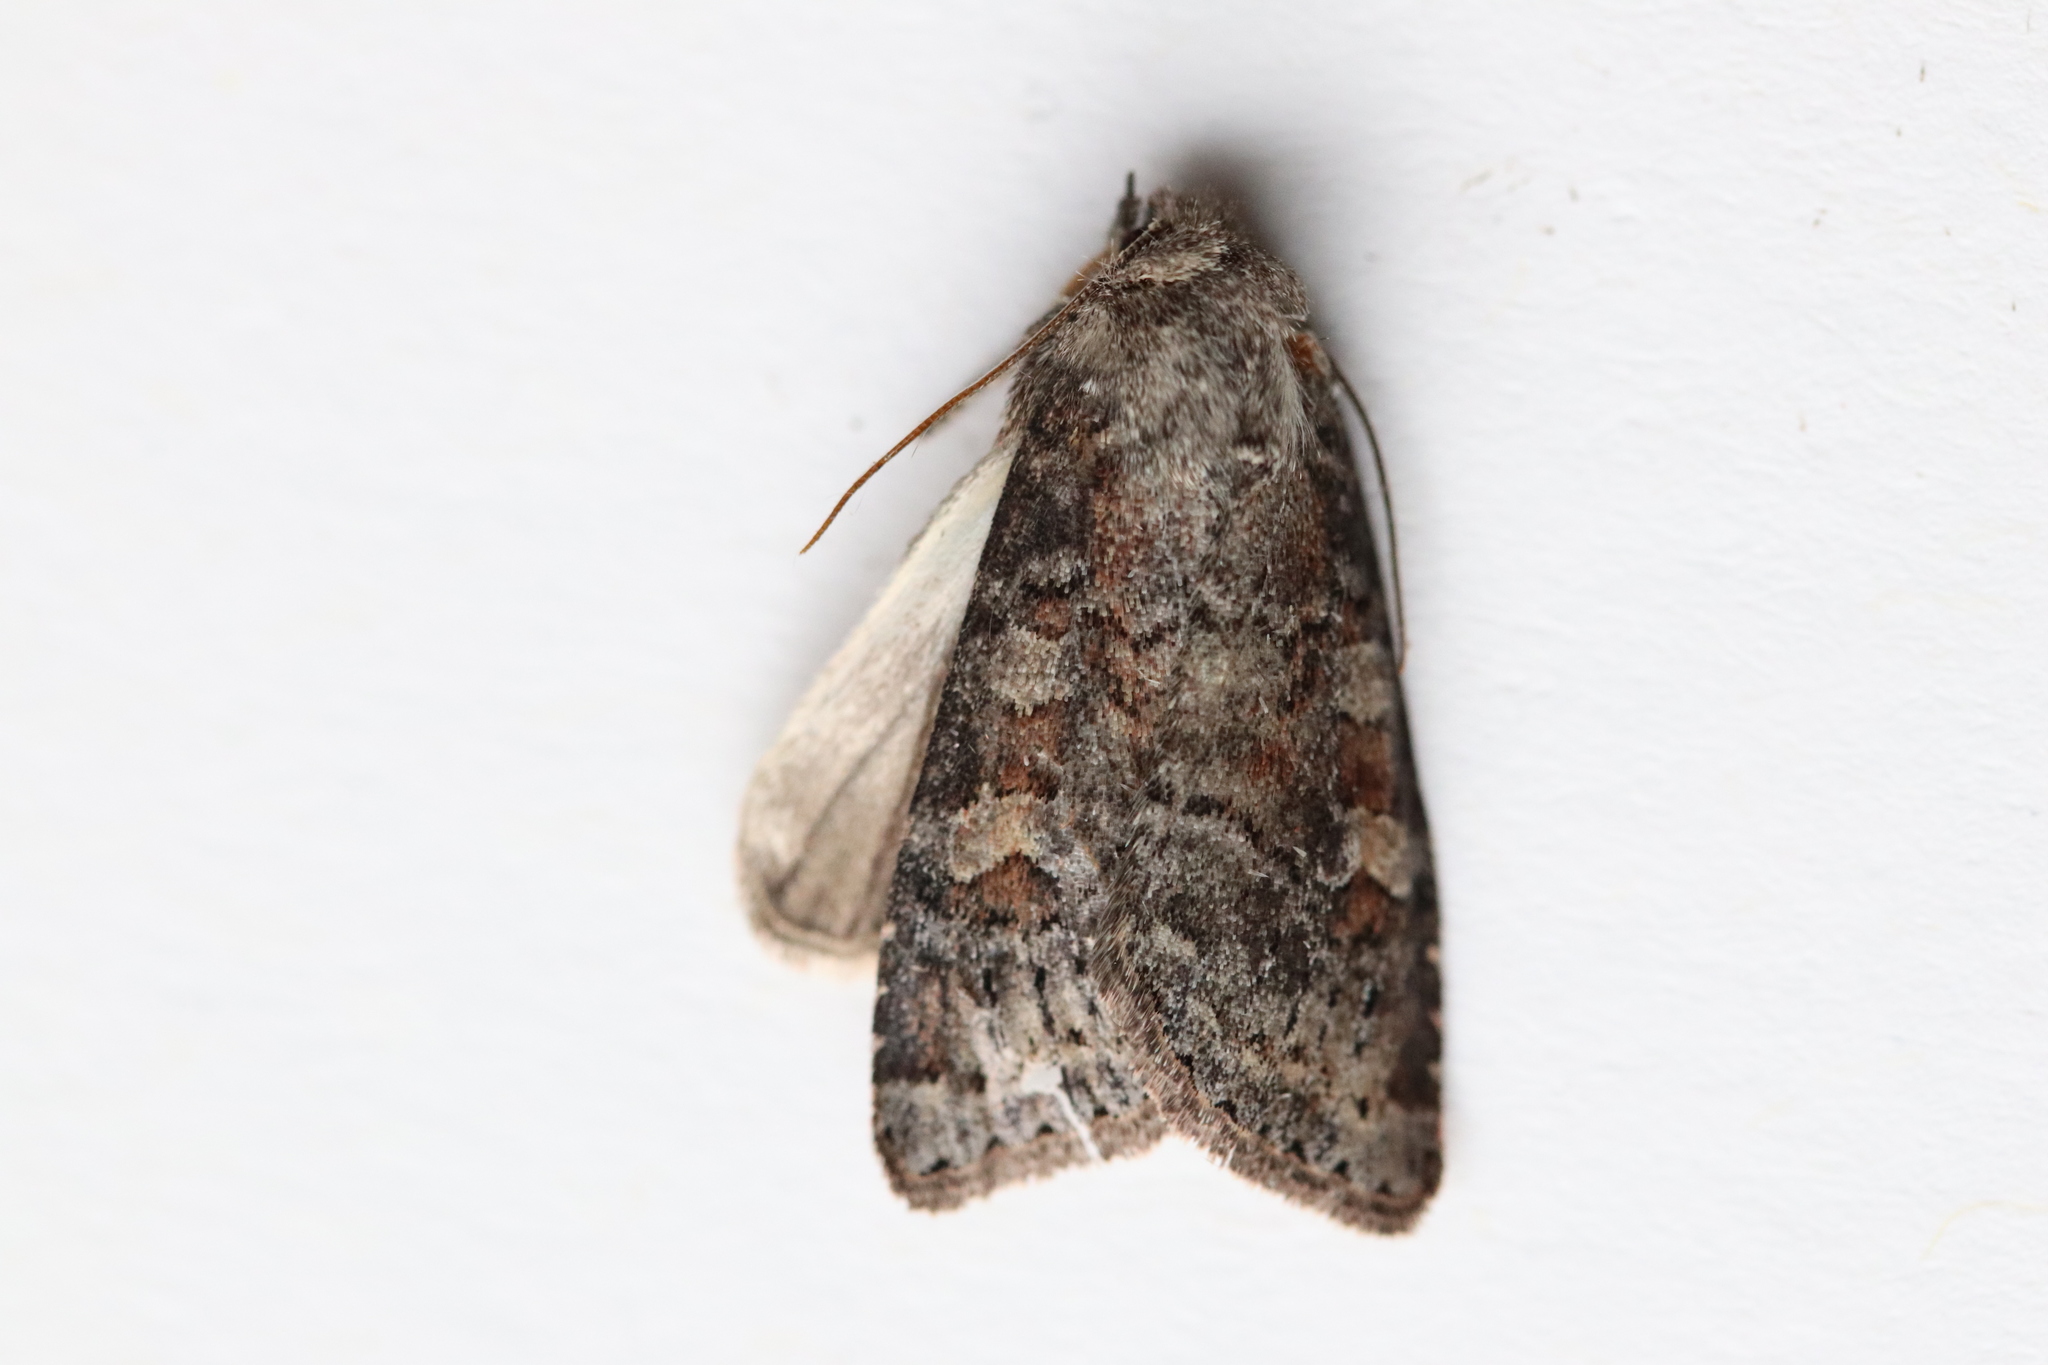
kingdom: Animalia
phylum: Arthropoda
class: Insecta
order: Lepidoptera
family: Noctuidae
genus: Parastichtis
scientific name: Parastichtis suspecta
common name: Suspected
